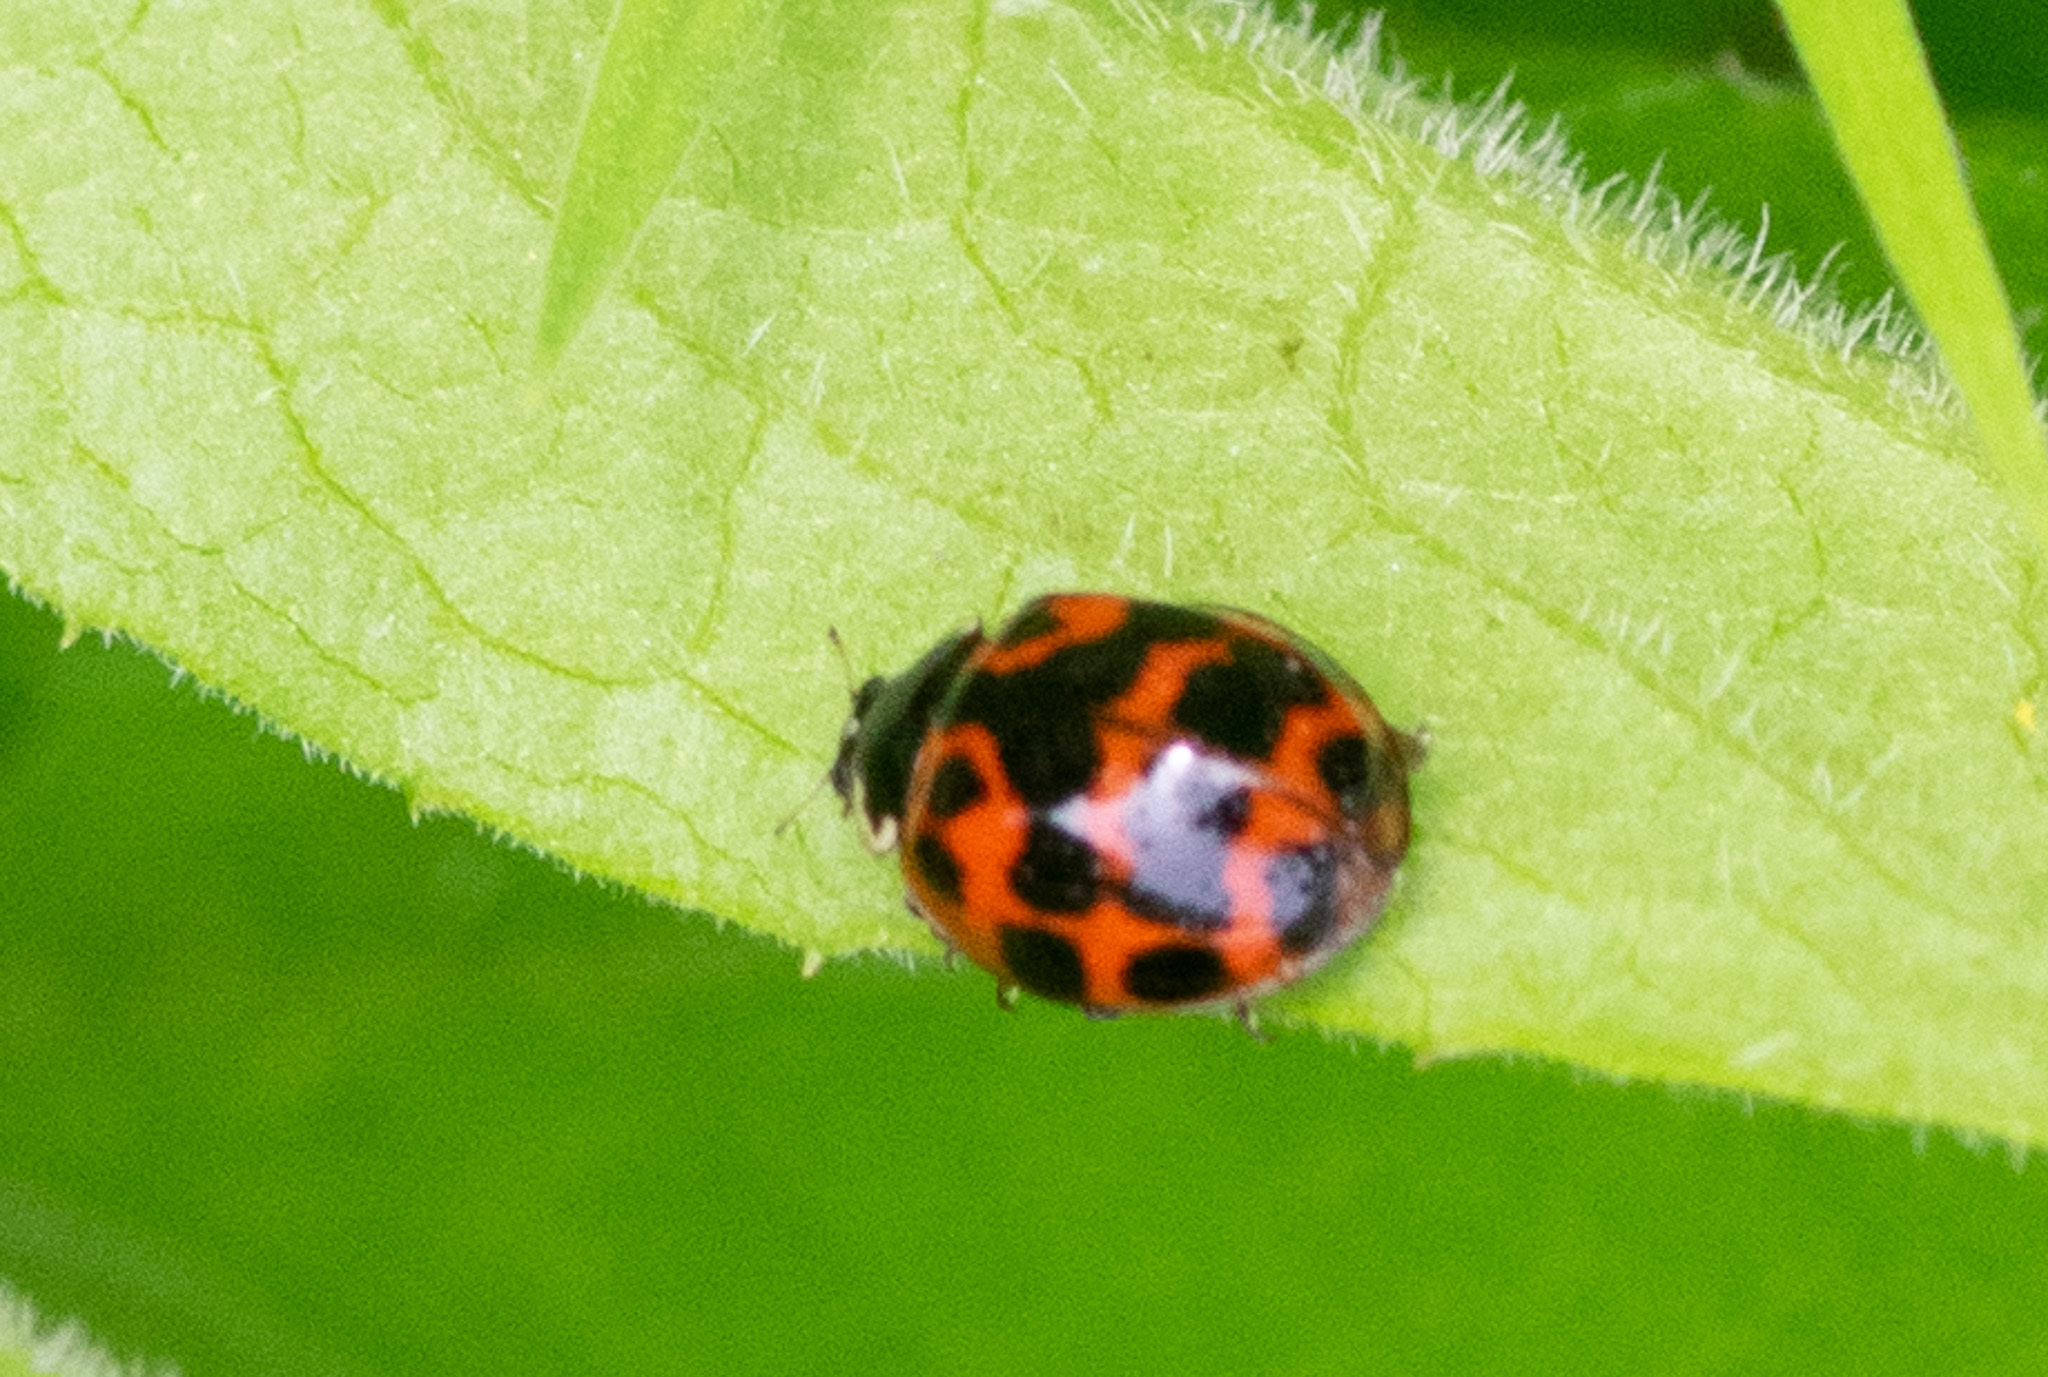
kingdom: Animalia
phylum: Arthropoda
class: Insecta
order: Coleoptera
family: Coccinellidae
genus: Harmonia
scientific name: Harmonia axyridis
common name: Harlequin ladybird
